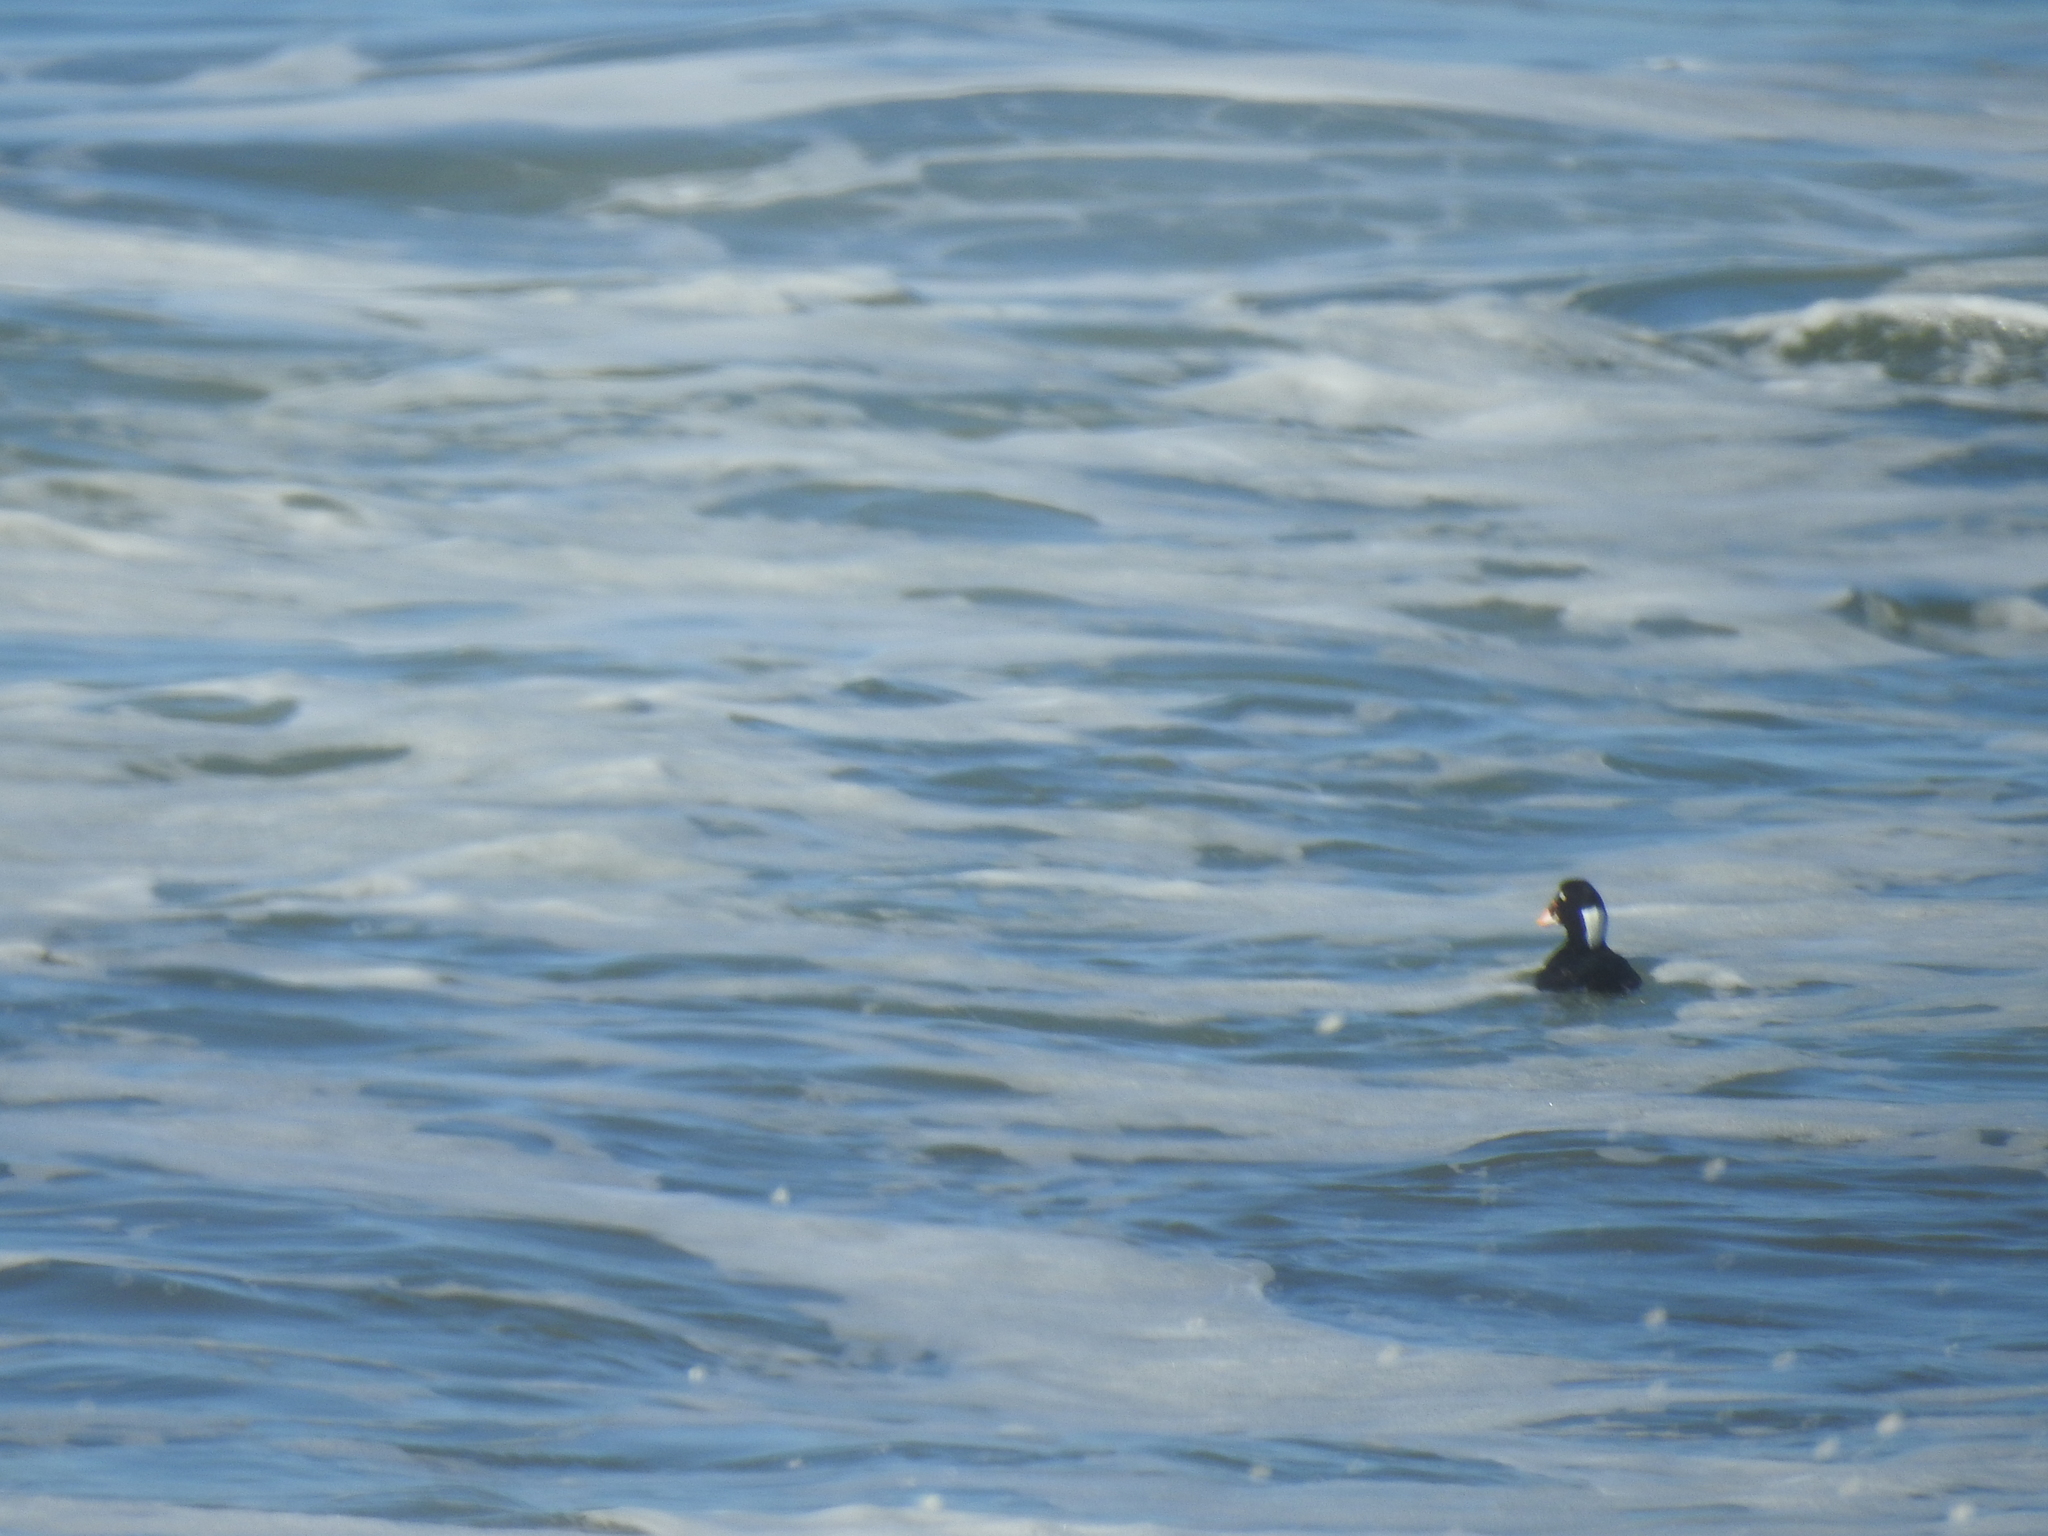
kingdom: Animalia
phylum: Chordata
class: Aves
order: Anseriformes
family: Anatidae
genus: Melanitta
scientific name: Melanitta perspicillata
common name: Surf scoter
